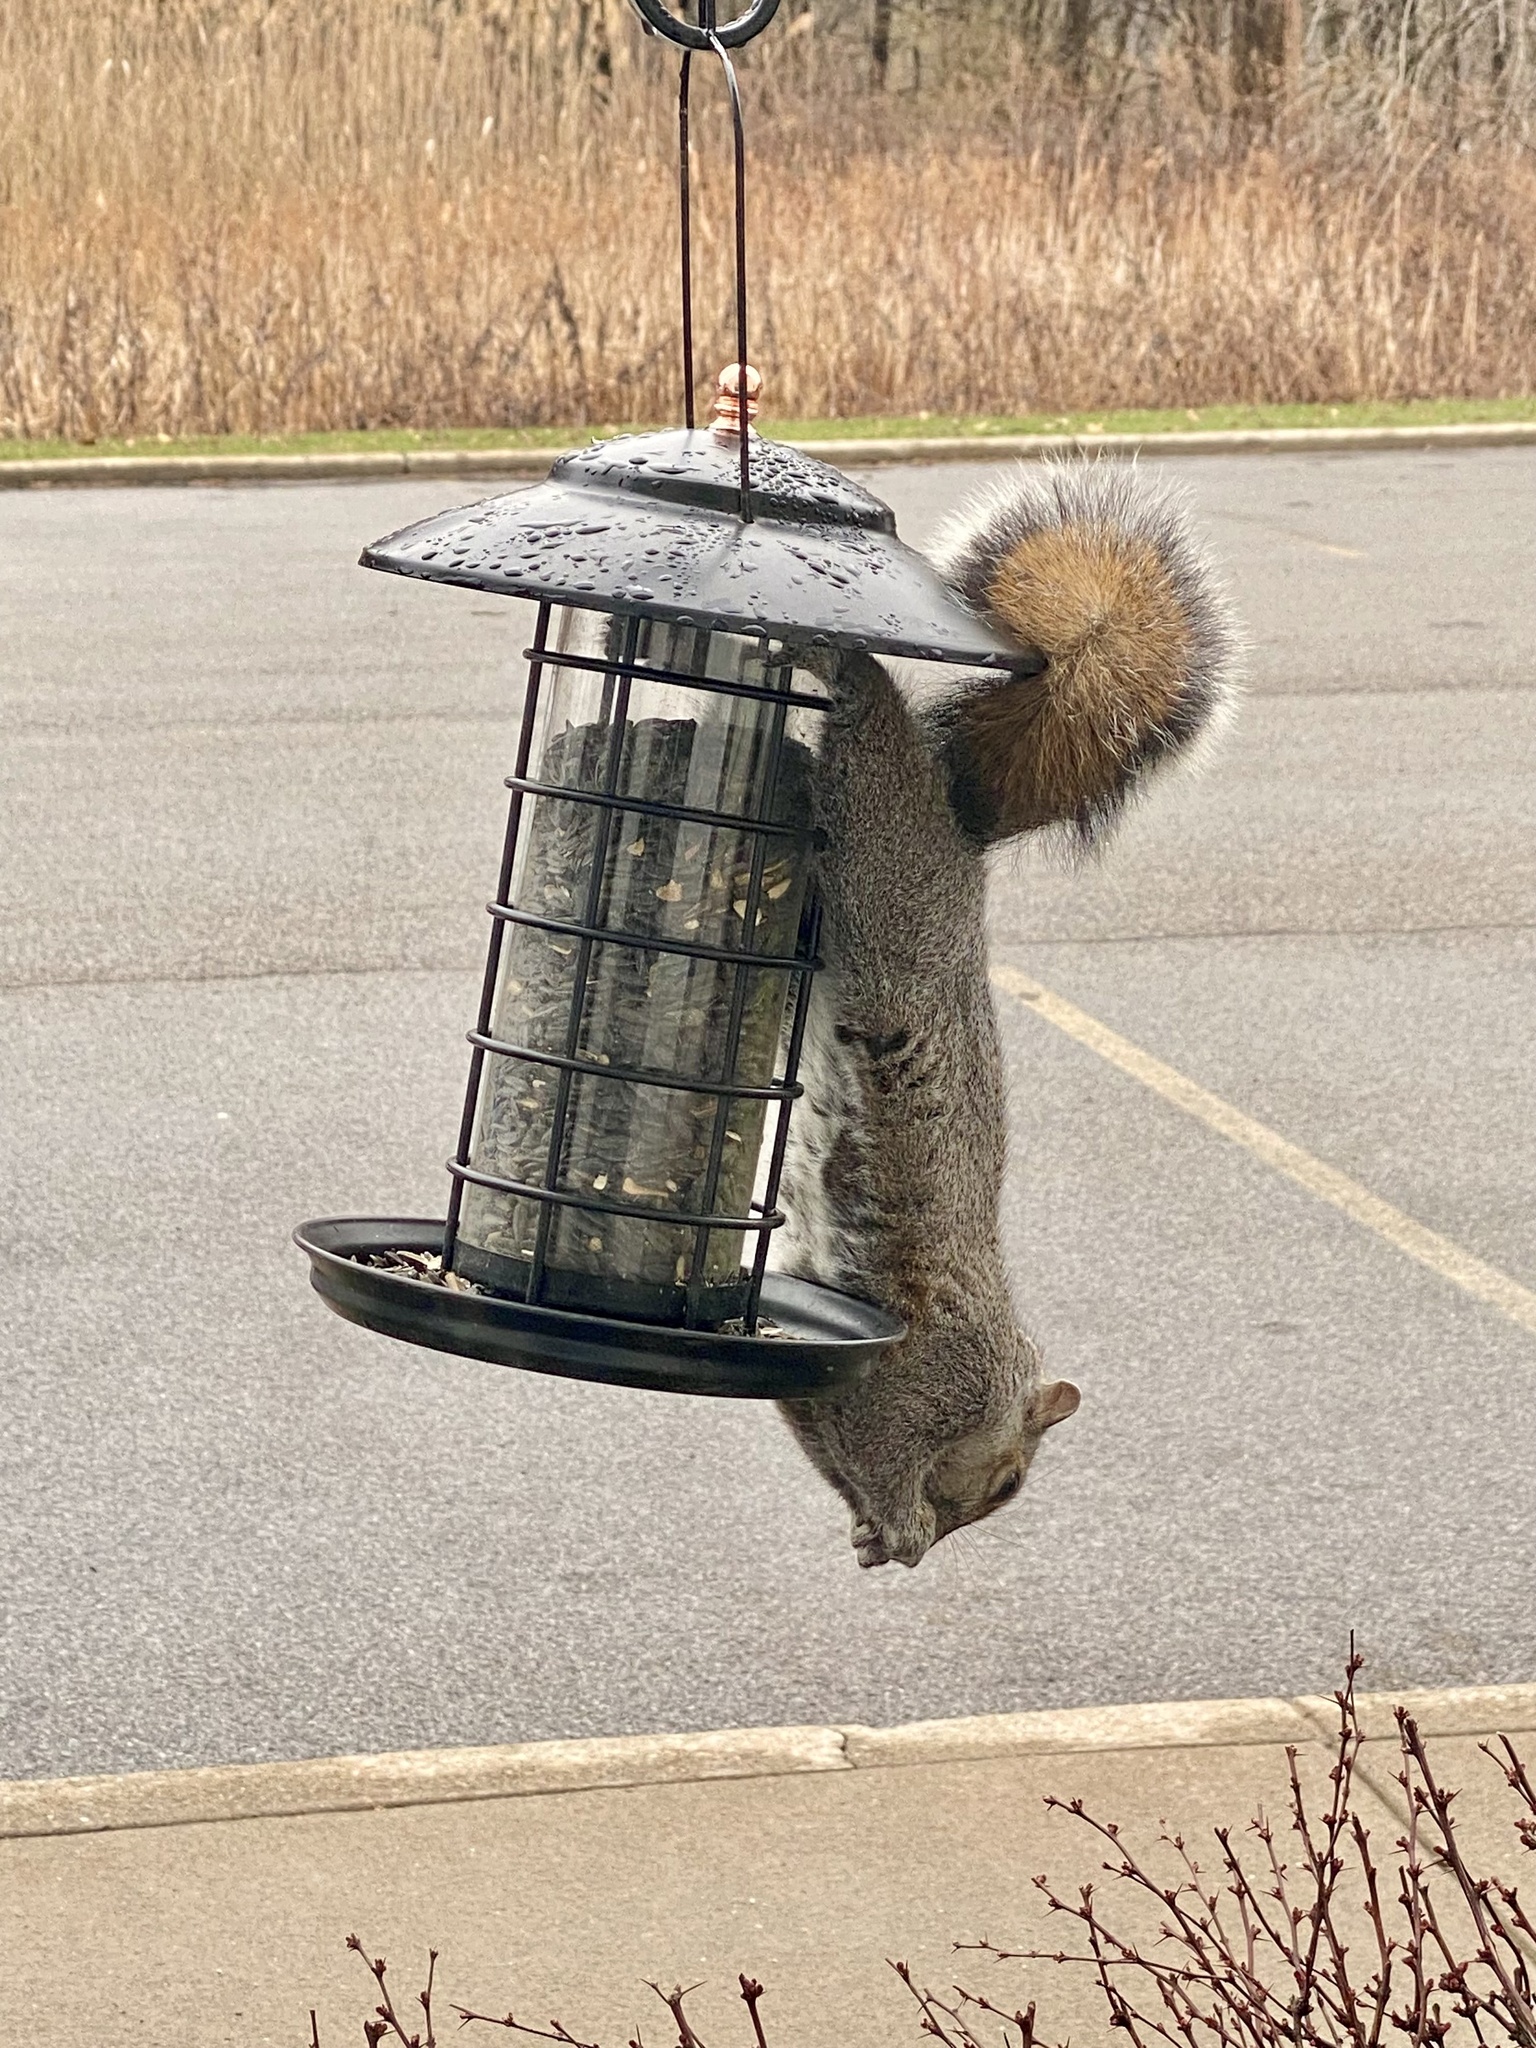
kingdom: Animalia
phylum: Chordata
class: Mammalia
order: Rodentia
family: Sciuridae
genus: Sciurus
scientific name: Sciurus carolinensis
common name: Eastern gray squirrel
